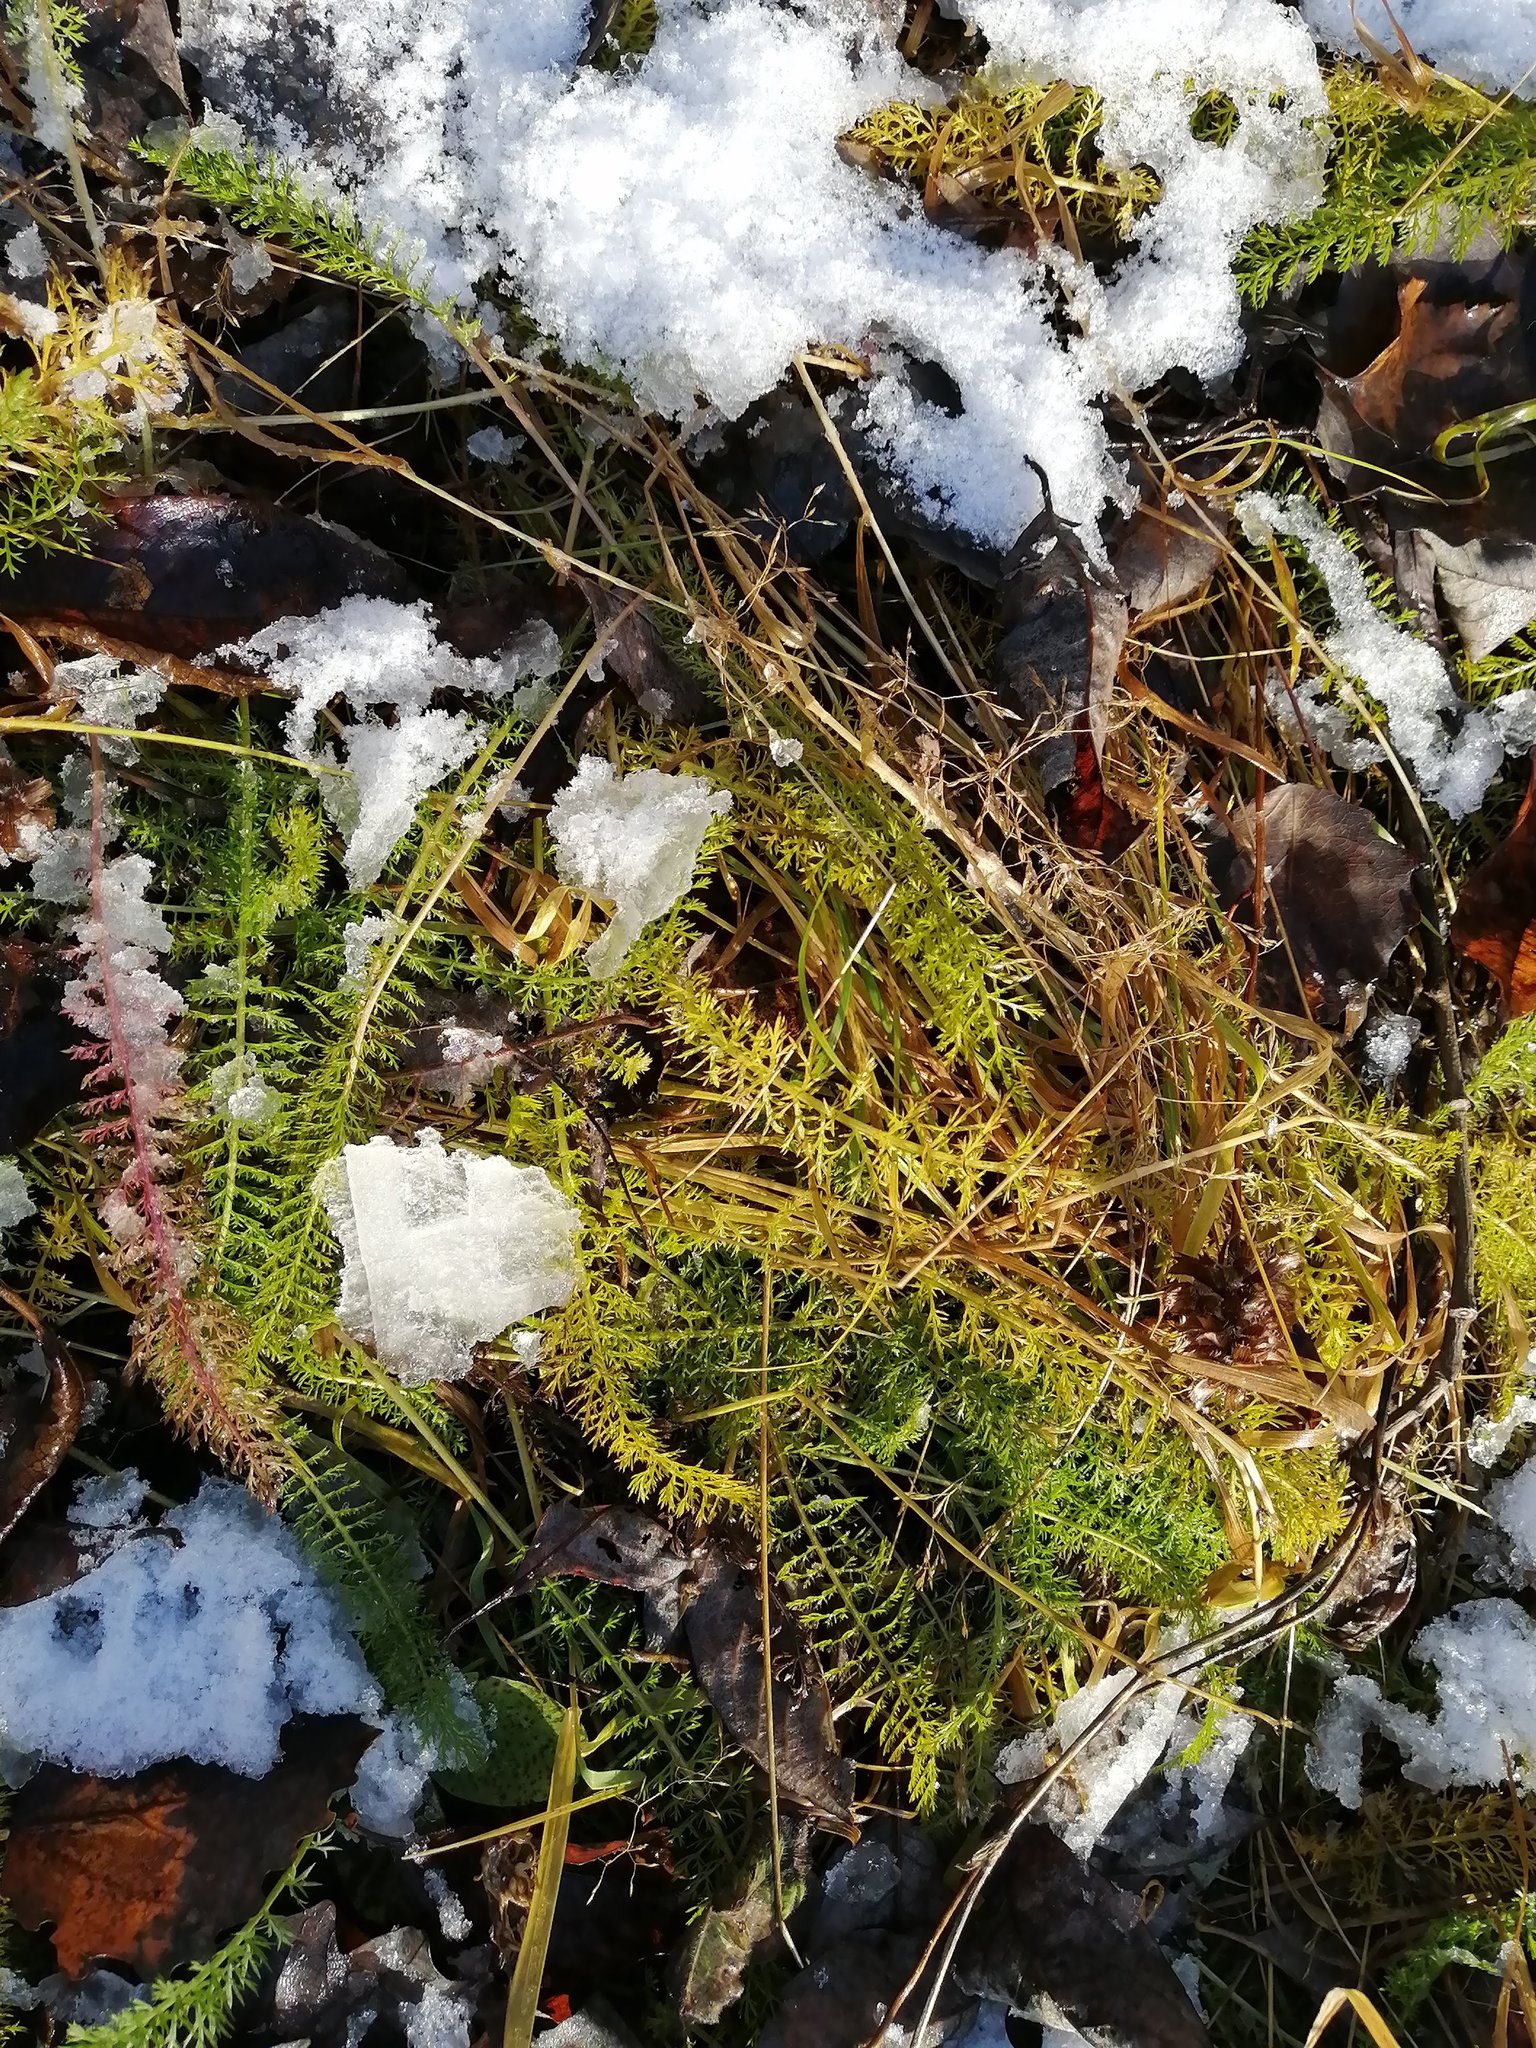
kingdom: Plantae
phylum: Tracheophyta
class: Magnoliopsida
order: Asterales
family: Asteraceae
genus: Achillea
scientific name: Achillea millefolium
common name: Yarrow
